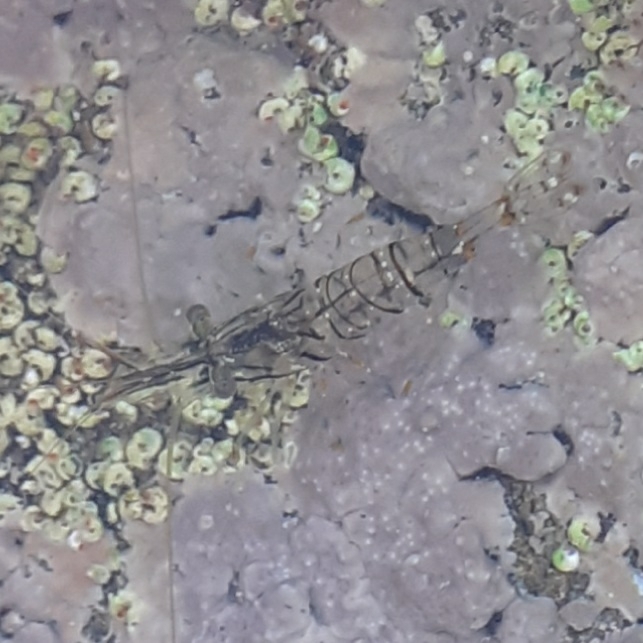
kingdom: Animalia
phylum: Arthropoda
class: Malacostraca
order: Decapoda
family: Palaemonidae
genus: Palaemon
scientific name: Palaemon elegans
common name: Grass prawm
